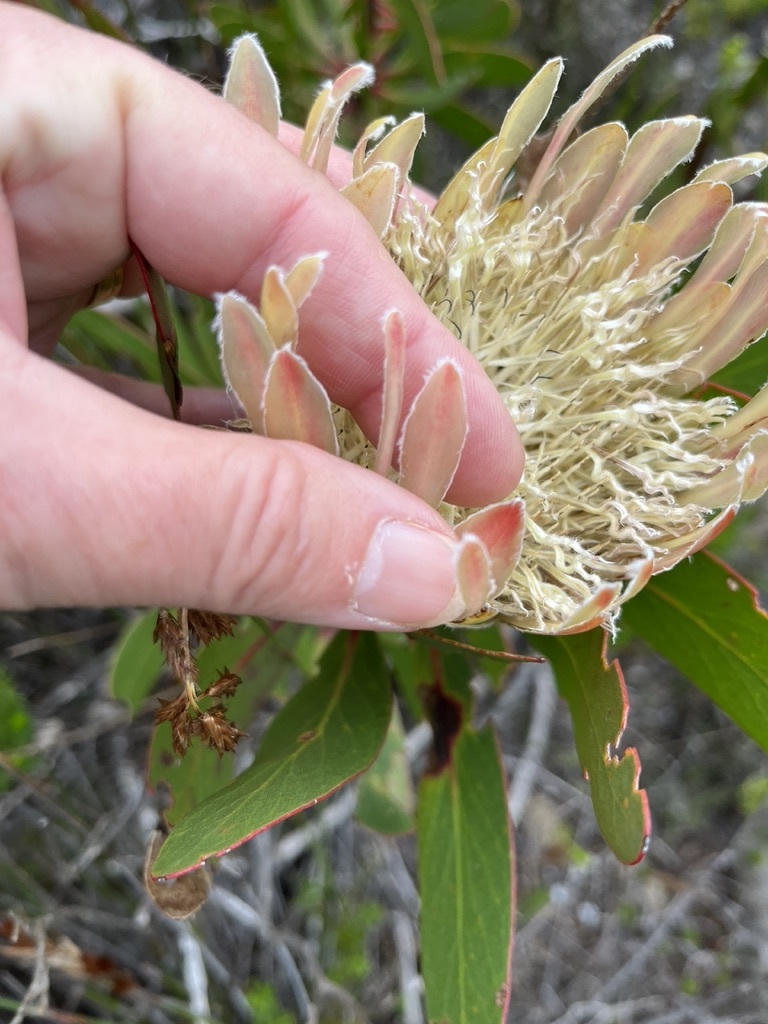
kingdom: Plantae
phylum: Tracheophyta
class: Magnoliopsida
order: Proteales
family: Proteaceae
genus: Protea
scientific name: Protea obtusifolia
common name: Bredasdorp sugarbush
